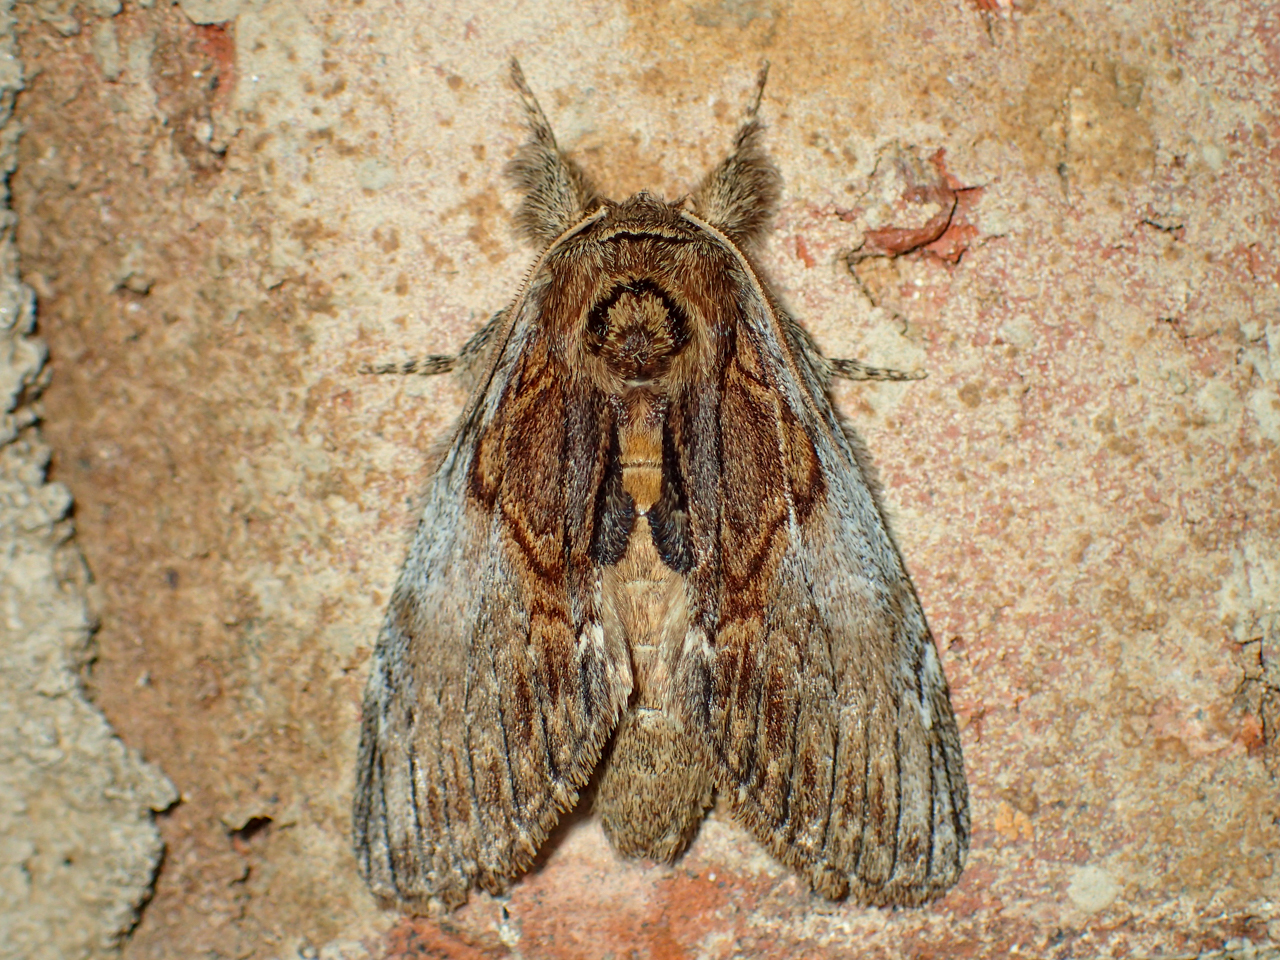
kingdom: Animalia
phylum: Arthropoda
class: Insecta
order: Lepidoptera
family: Notodontidae
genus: Peridea
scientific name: Peridea basitriens
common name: Oval-based prominent
